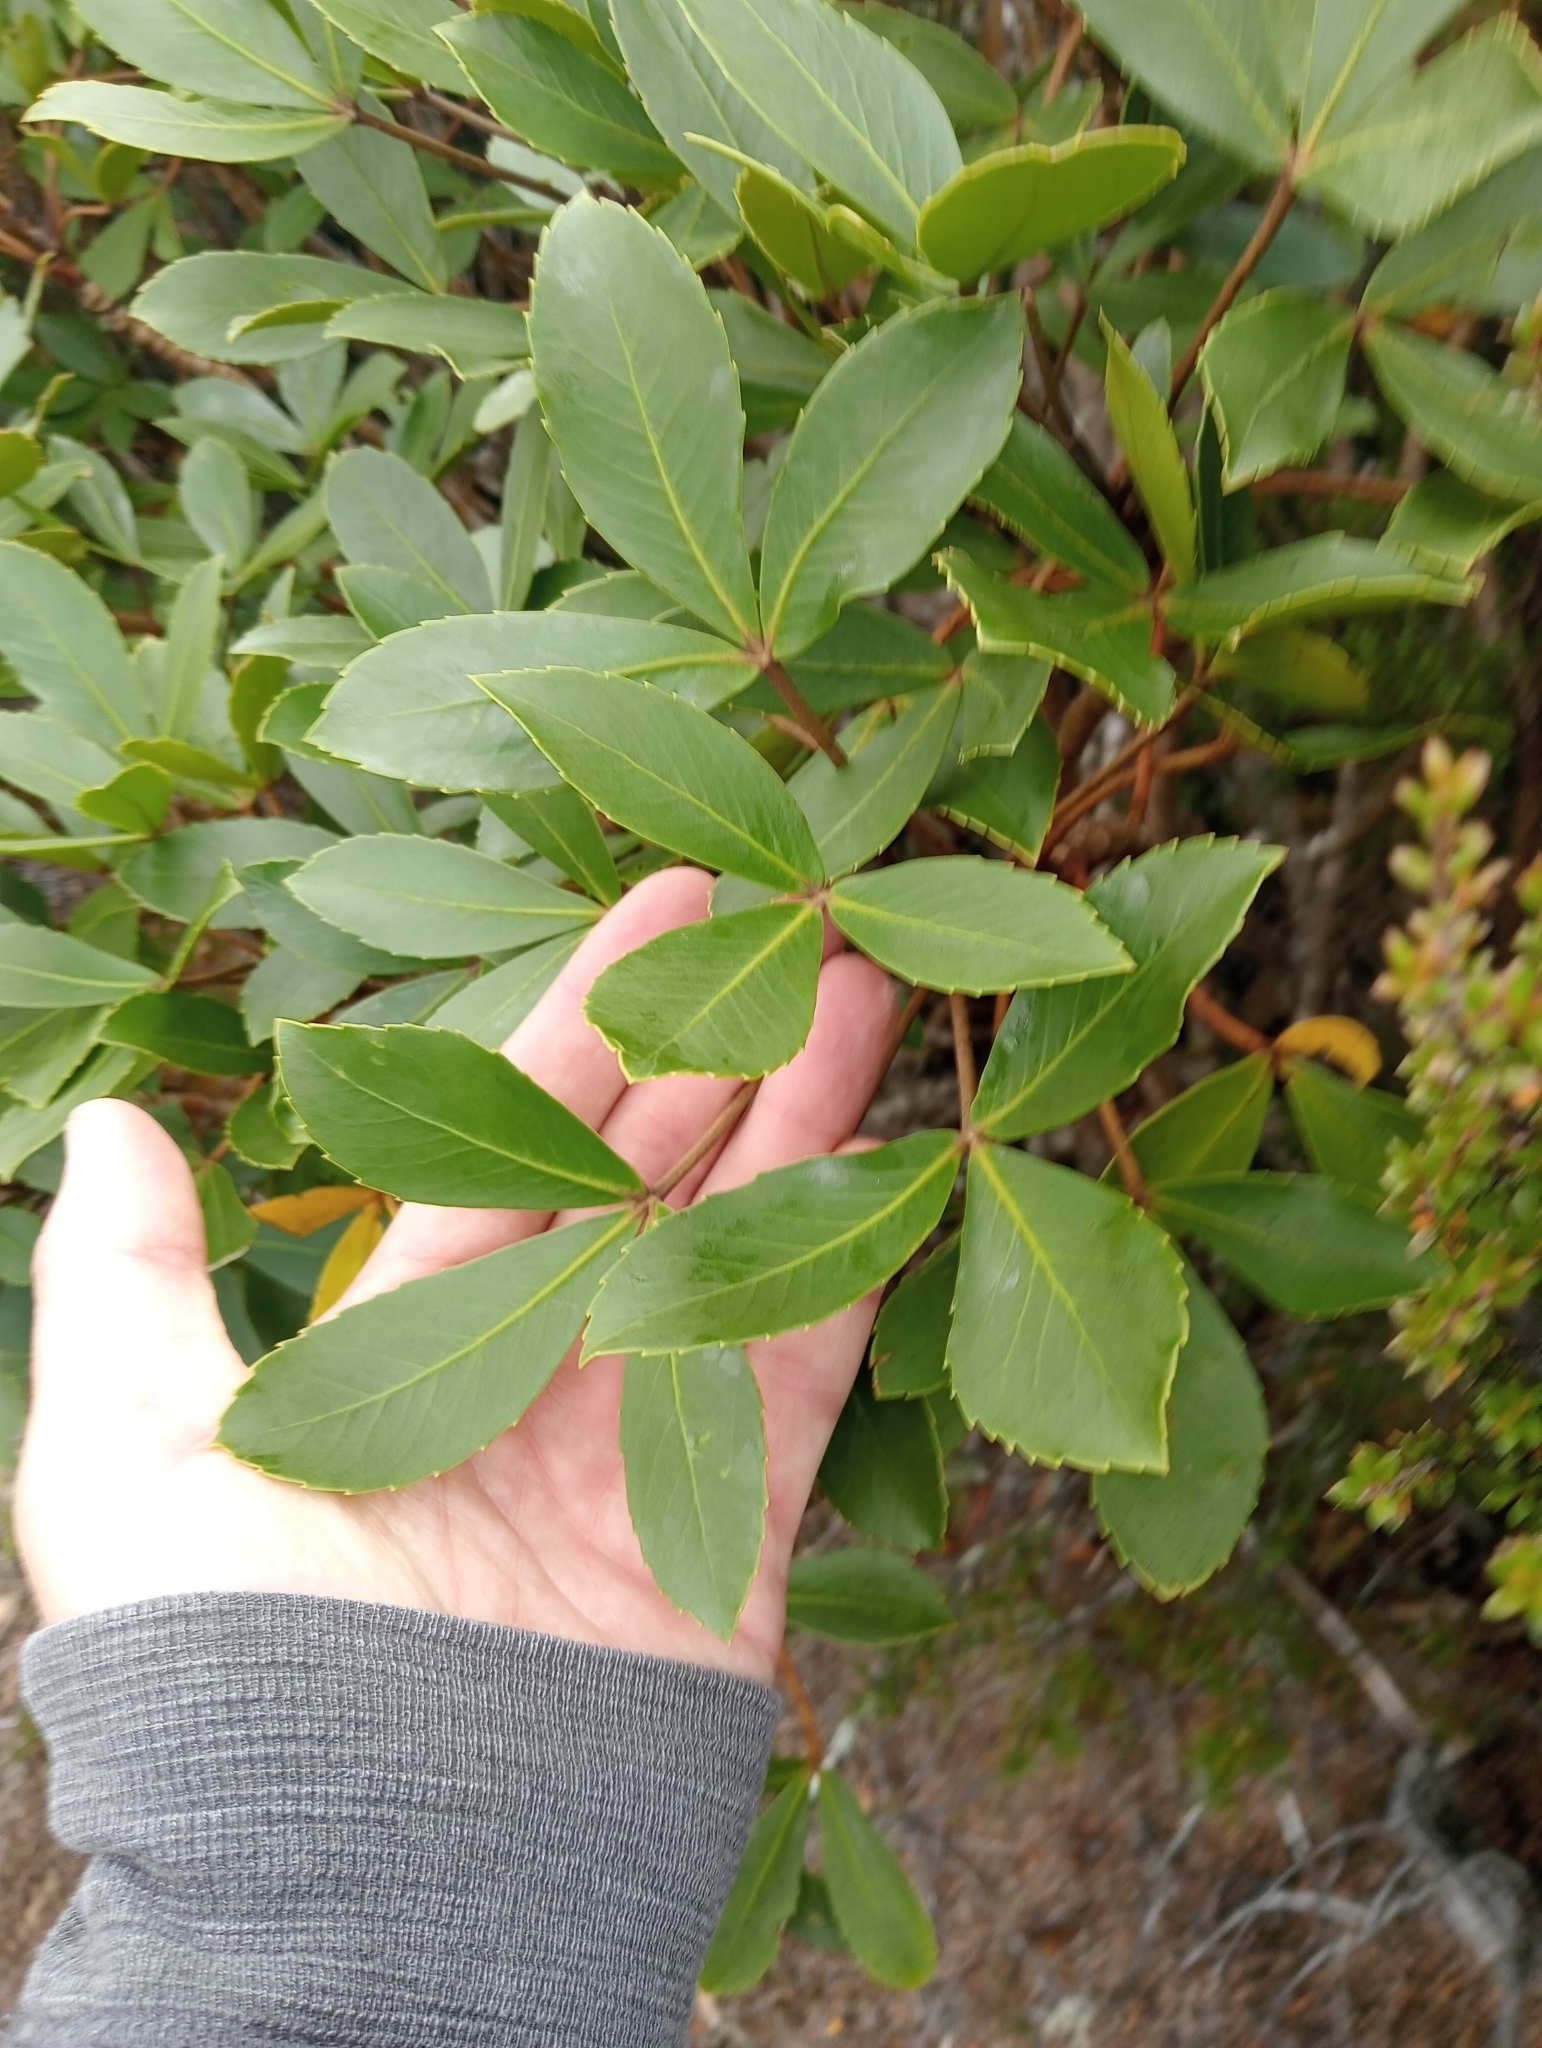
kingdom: Plantae
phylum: Tracheophyta
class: Magnoliopsida
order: Apiales
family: Araliaceae
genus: Neopanax
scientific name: Neopanax colensoi
